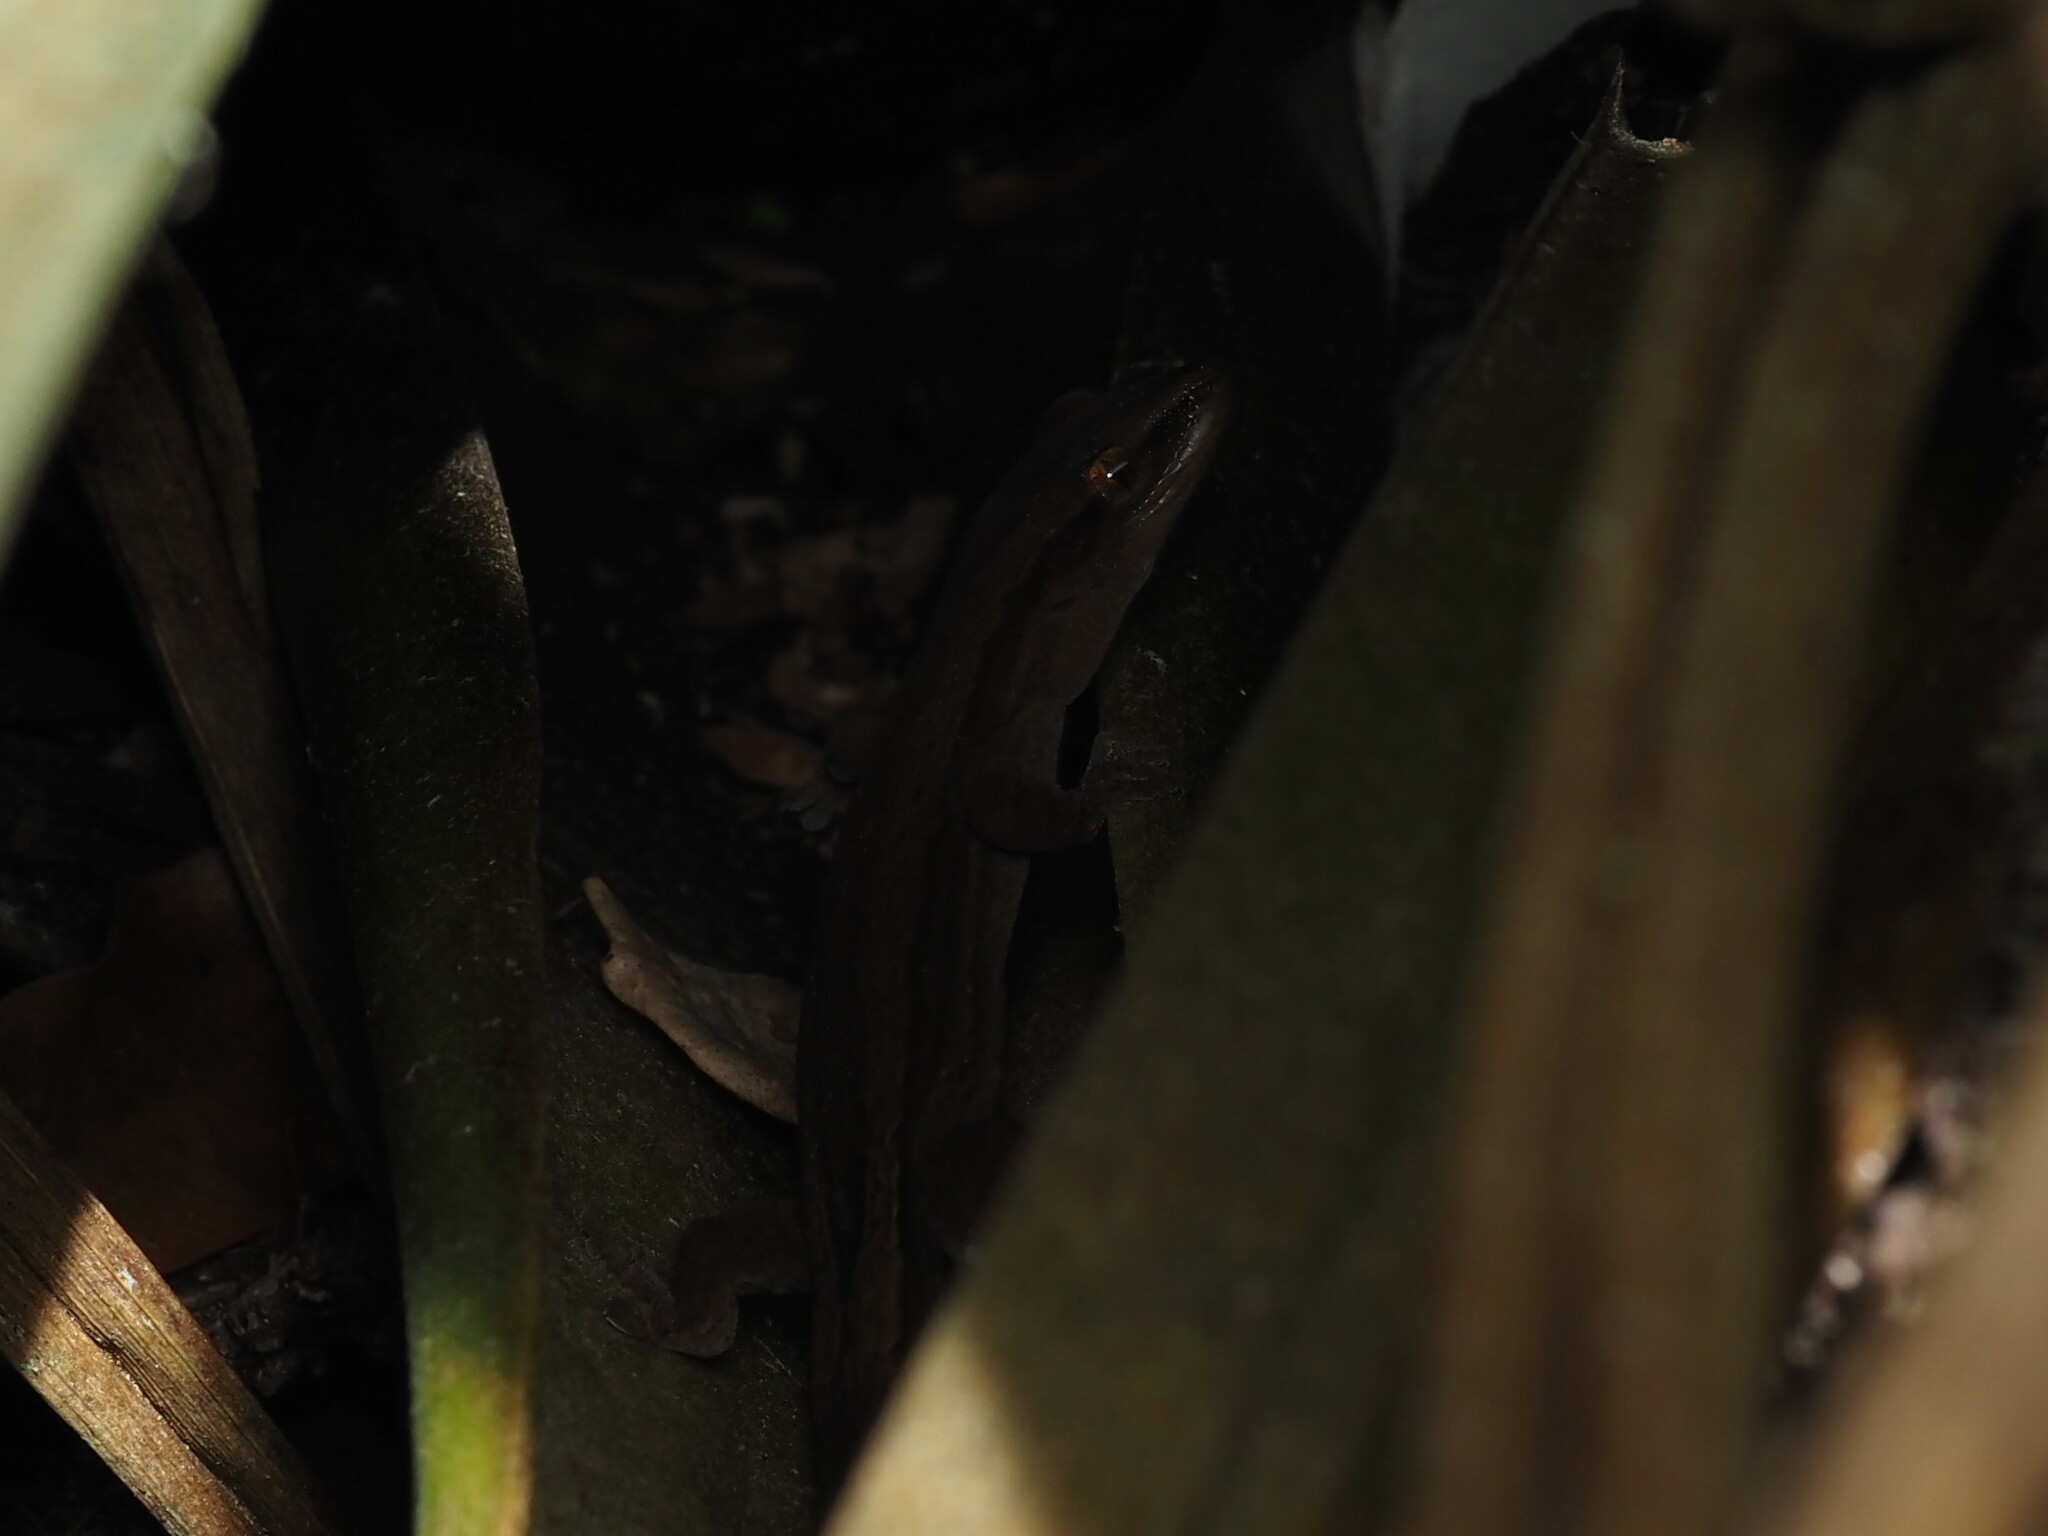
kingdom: Animalia
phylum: Chordata
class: Squamata
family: Diplodactylidae
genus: Woodworthia
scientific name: Woodworthia chrysosiretica
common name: Gold-striped gecko
